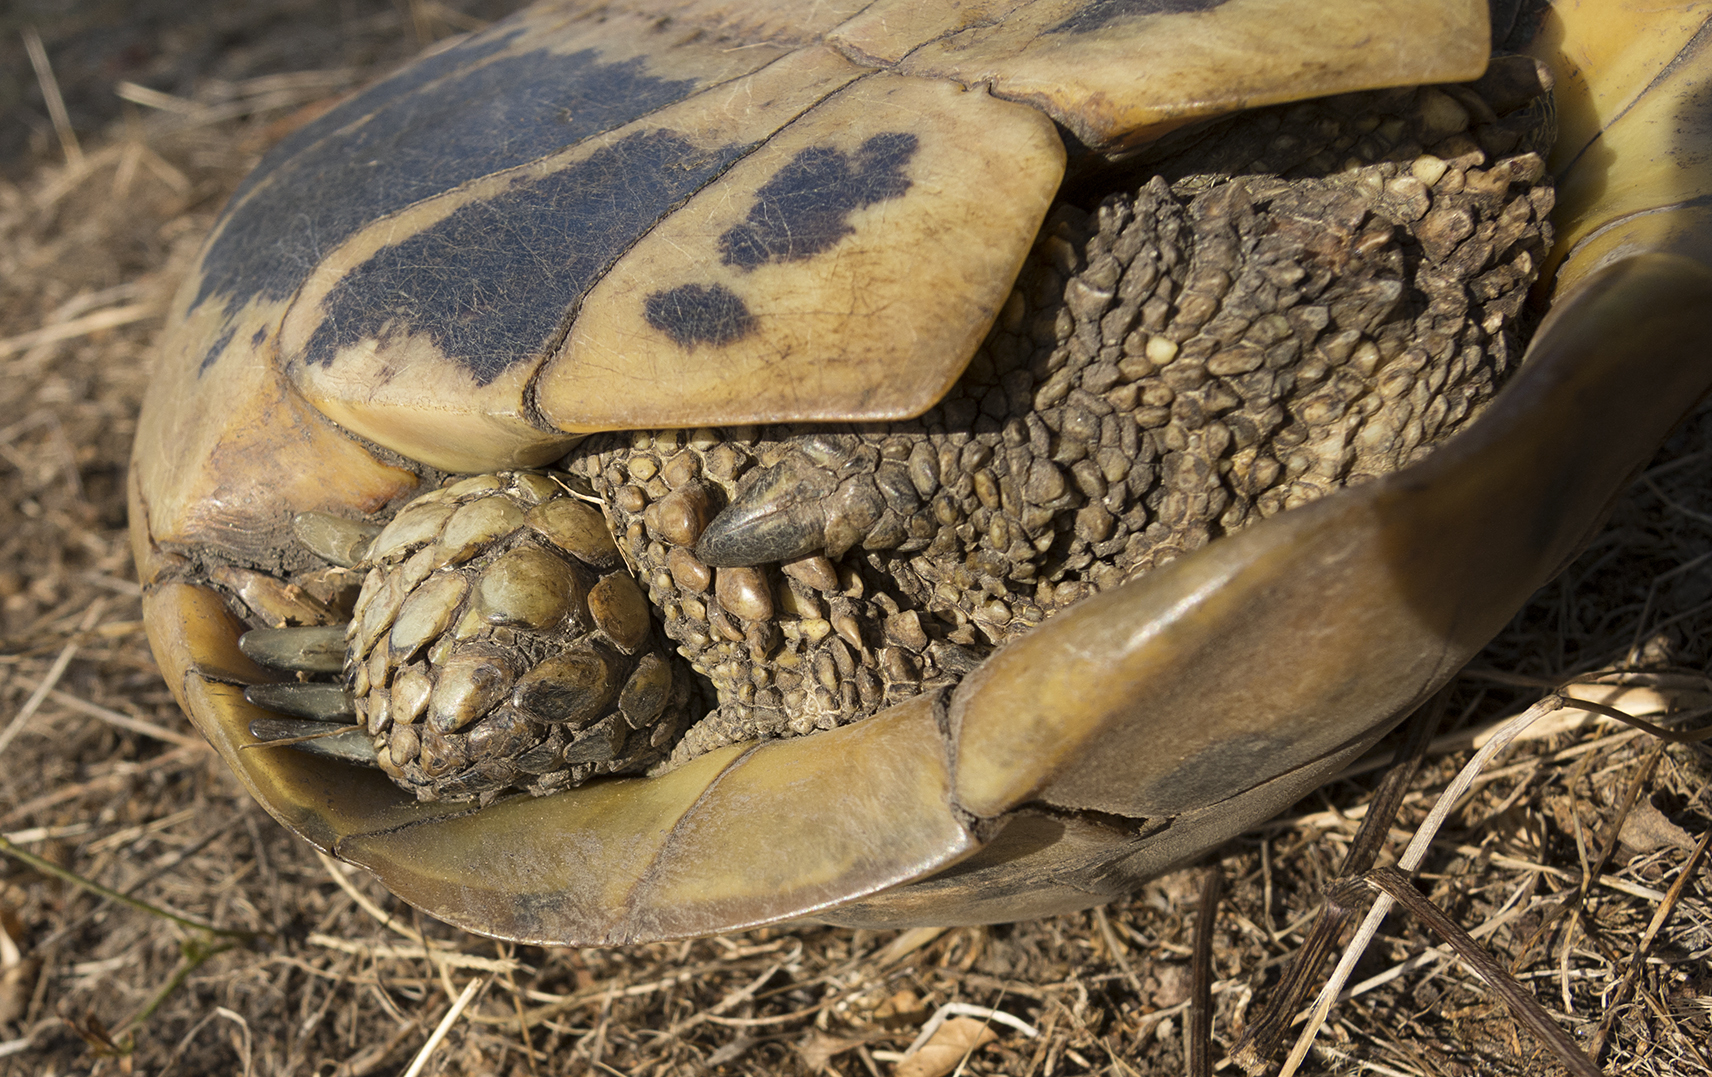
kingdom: Animalia
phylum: Chordata
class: Testudines
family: Testudinidae
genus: Testudo
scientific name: Testudo hermanni
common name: Hermann's tortoise
